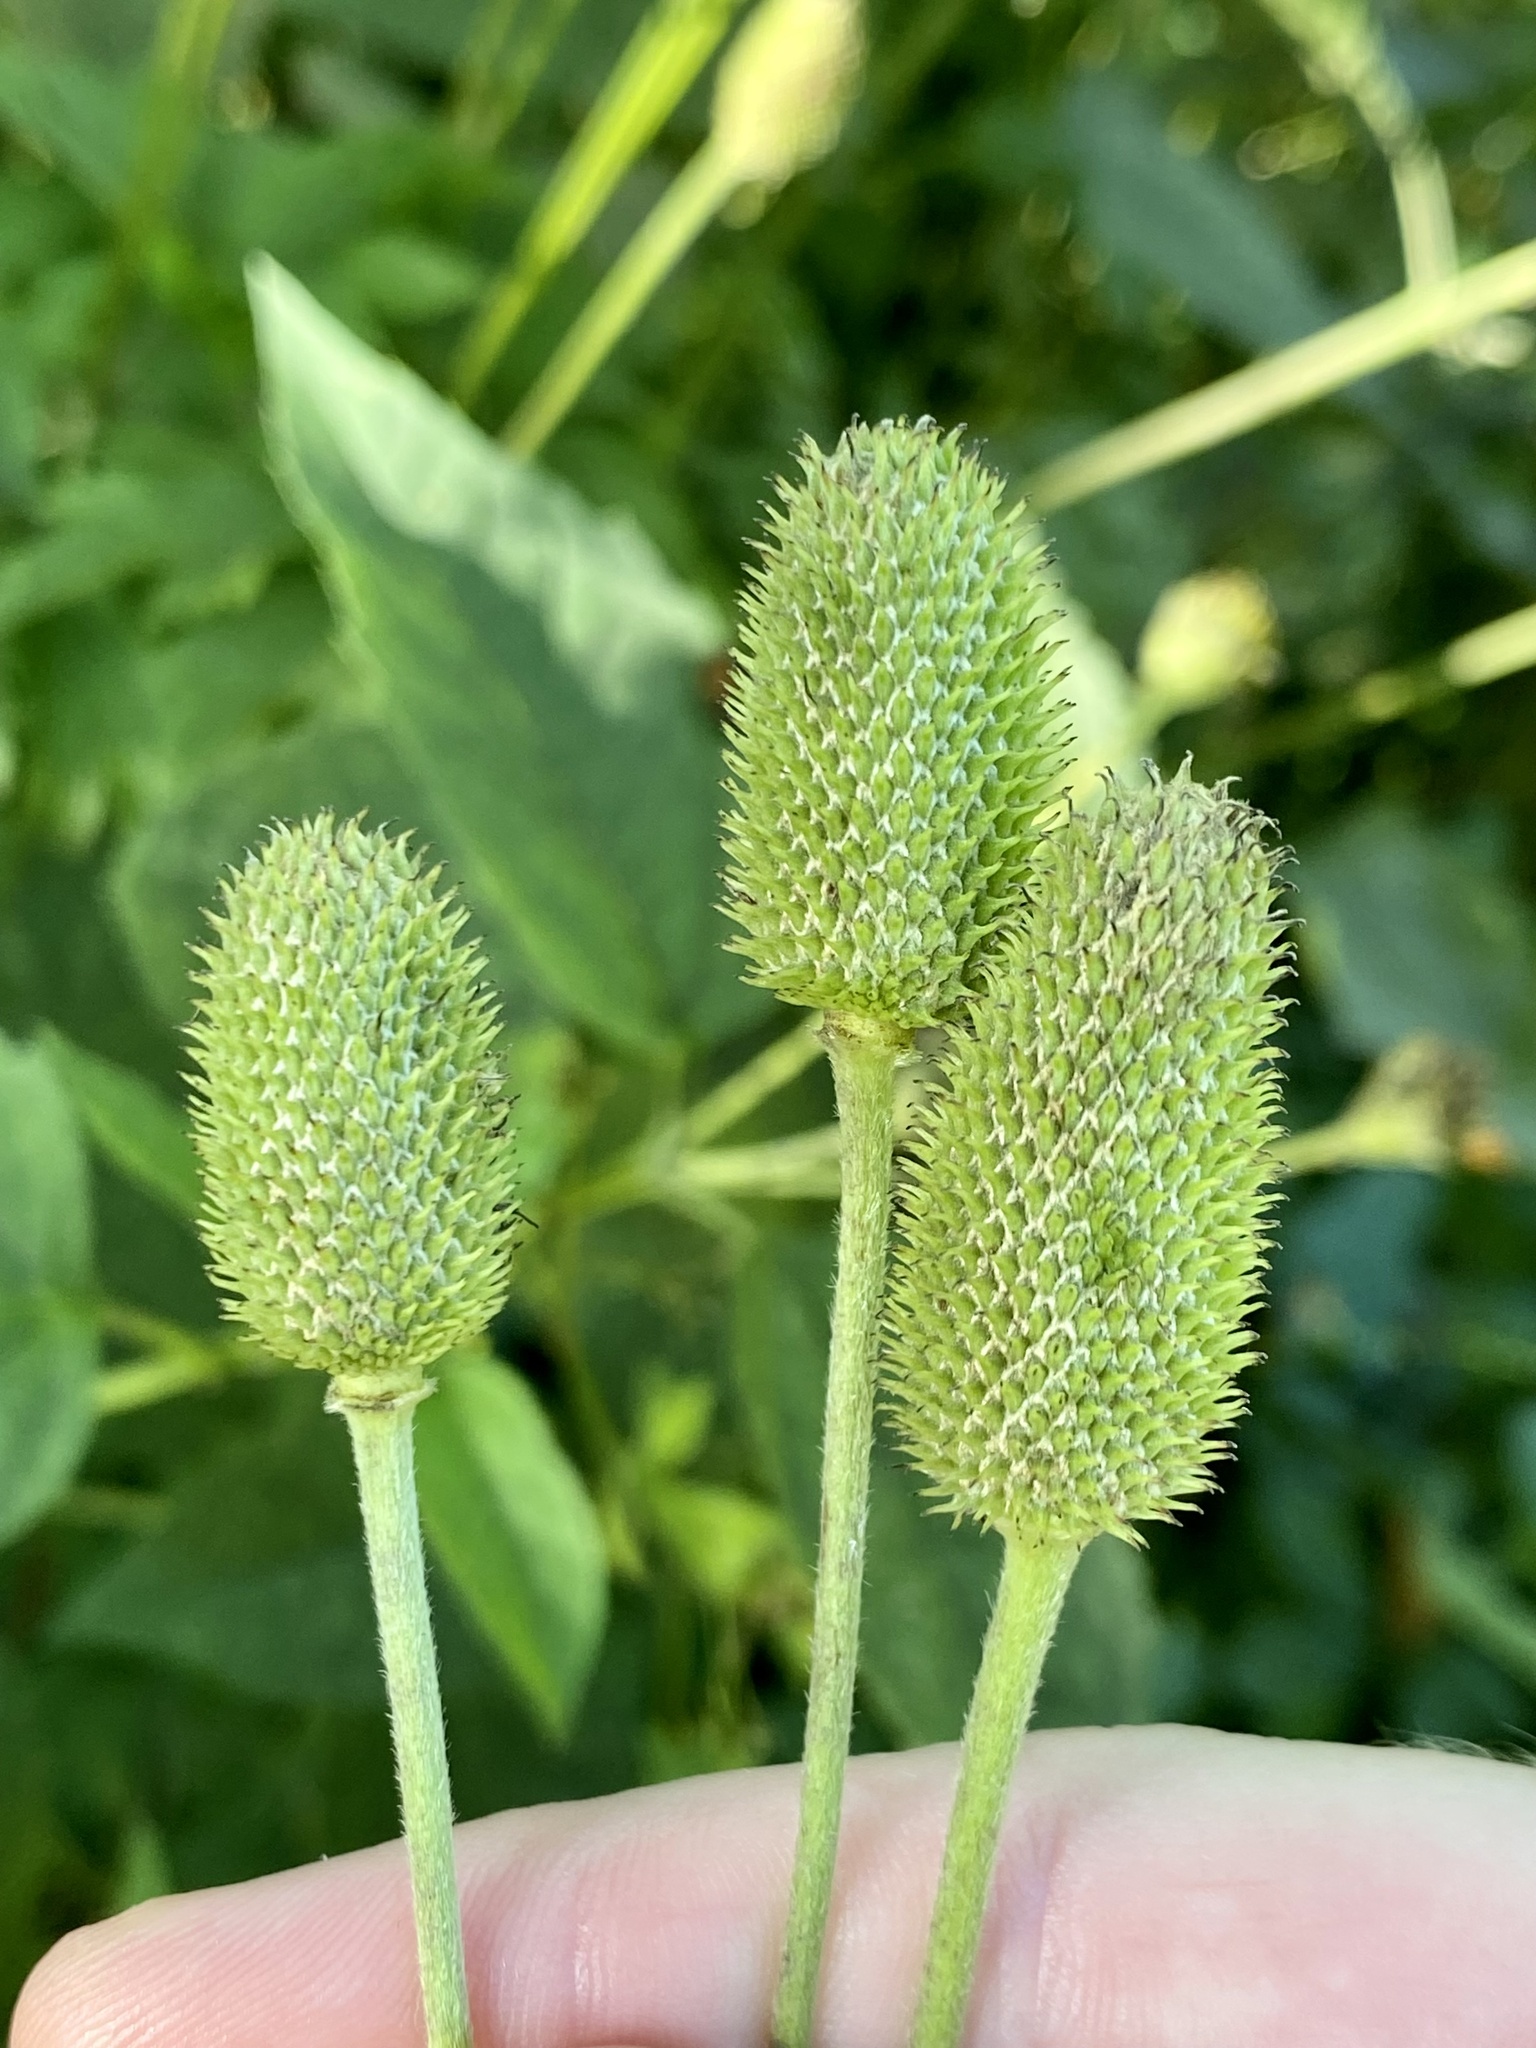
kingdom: Plantae
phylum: Tracheophyta
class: Magnoliopsida
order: Ranunculales
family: Ranunculaceae
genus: Anemone
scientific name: Anemone virginiana
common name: Tall anemone
